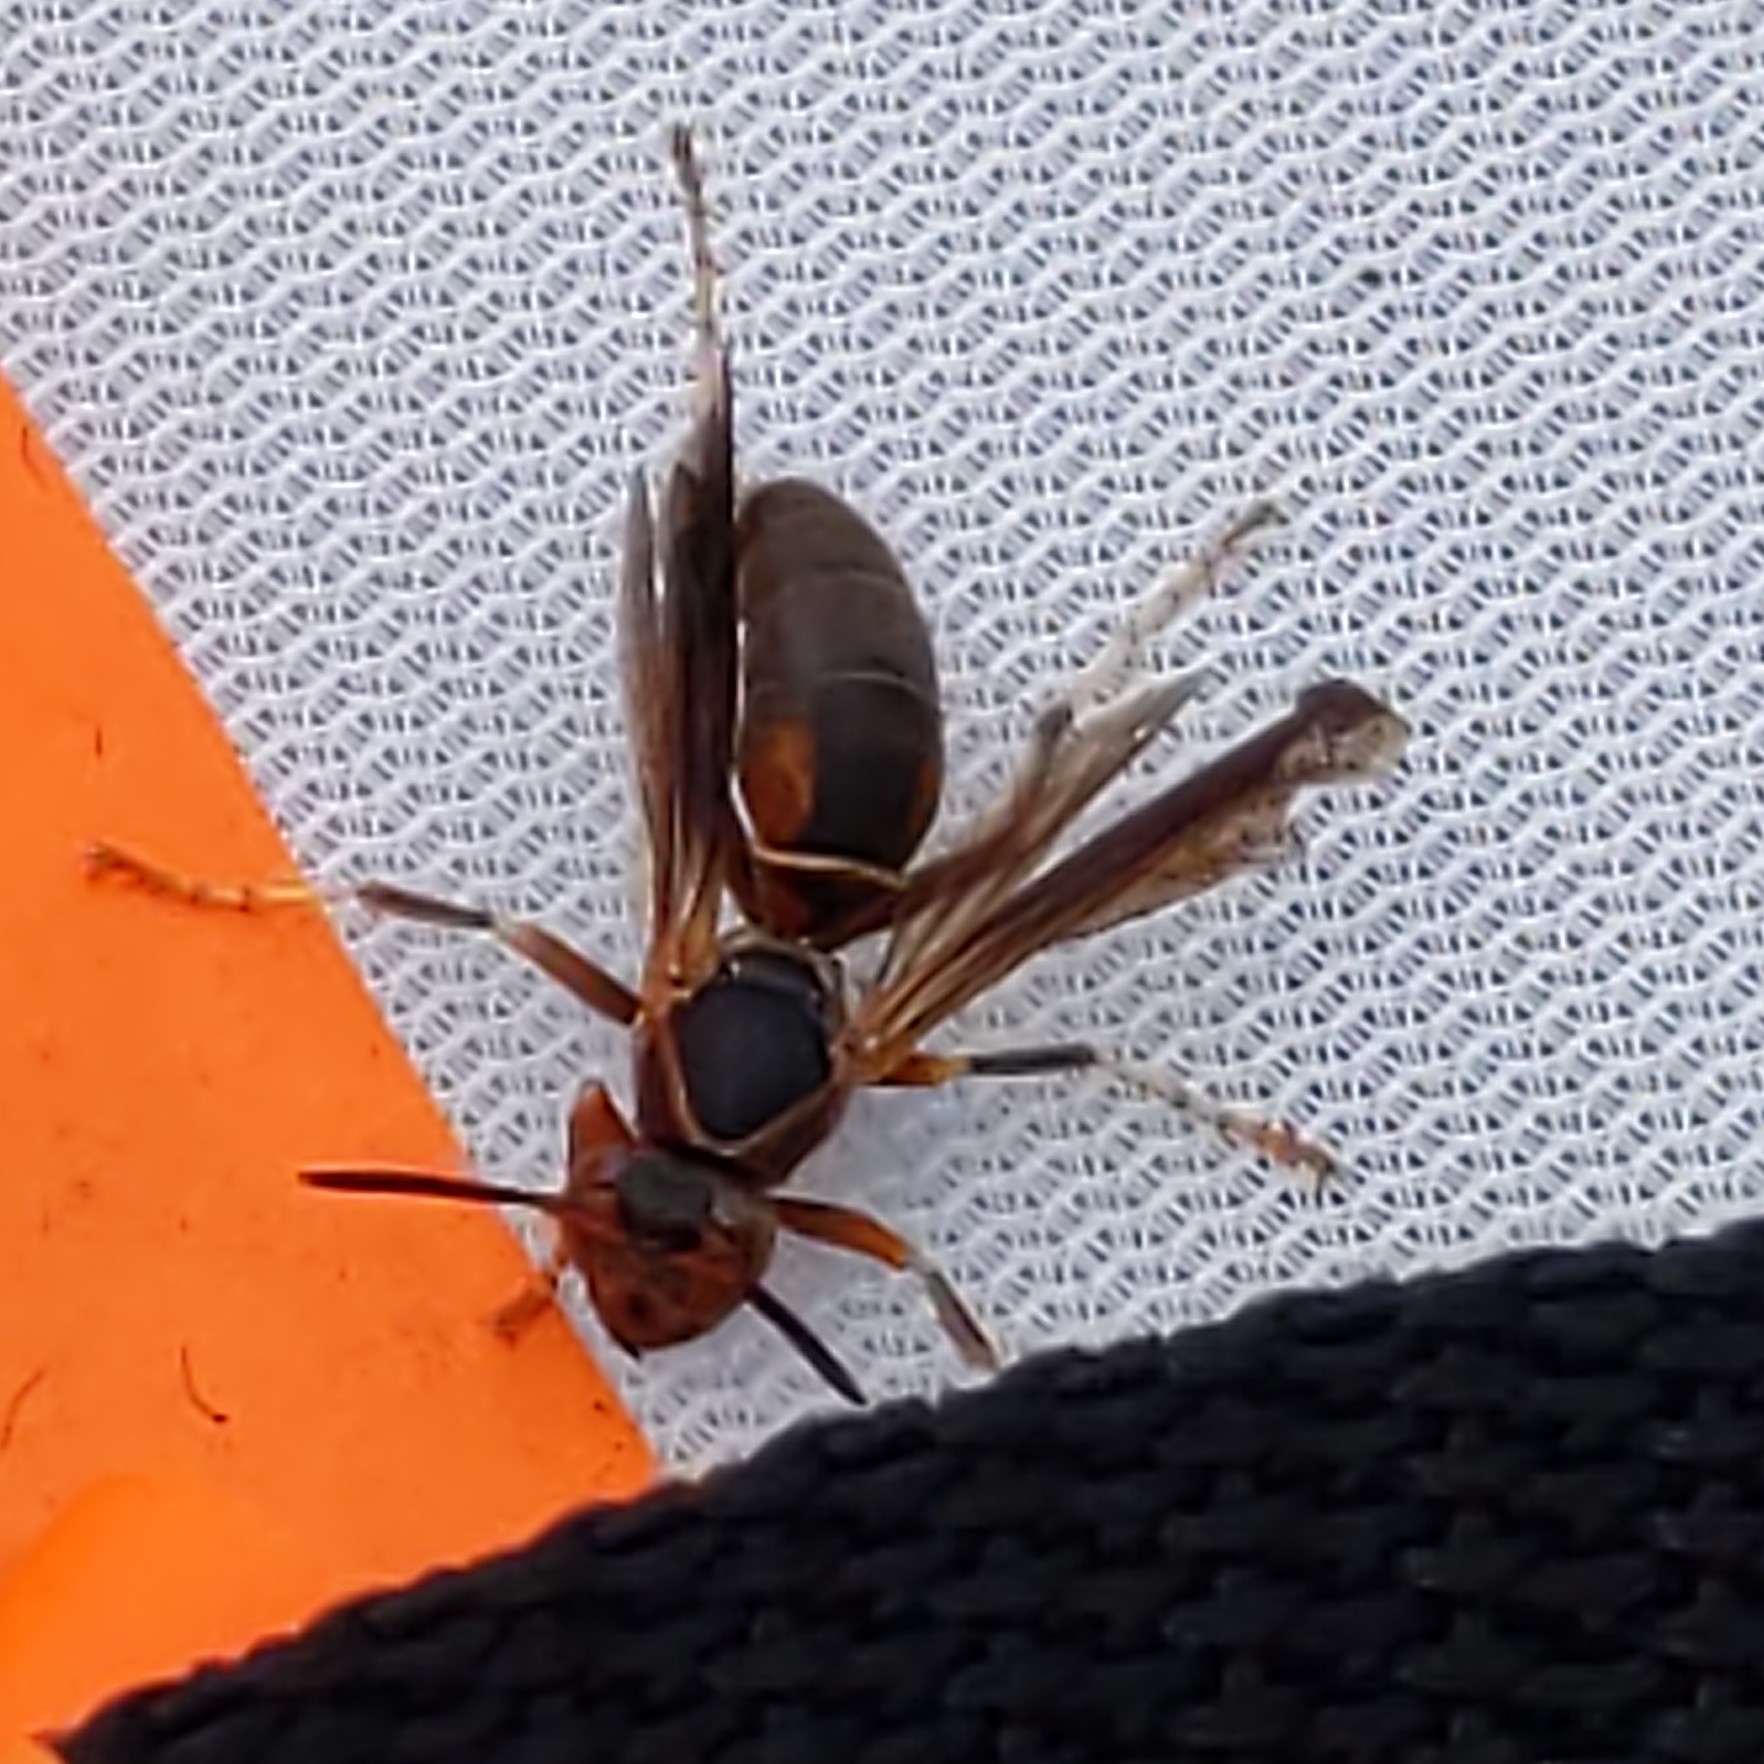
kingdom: Animalia
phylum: Arthropoda
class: Insecta
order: Hymenoptera
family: Eumenidae
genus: Polistes
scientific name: Polistes fuscatus
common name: Dark paper wasp
